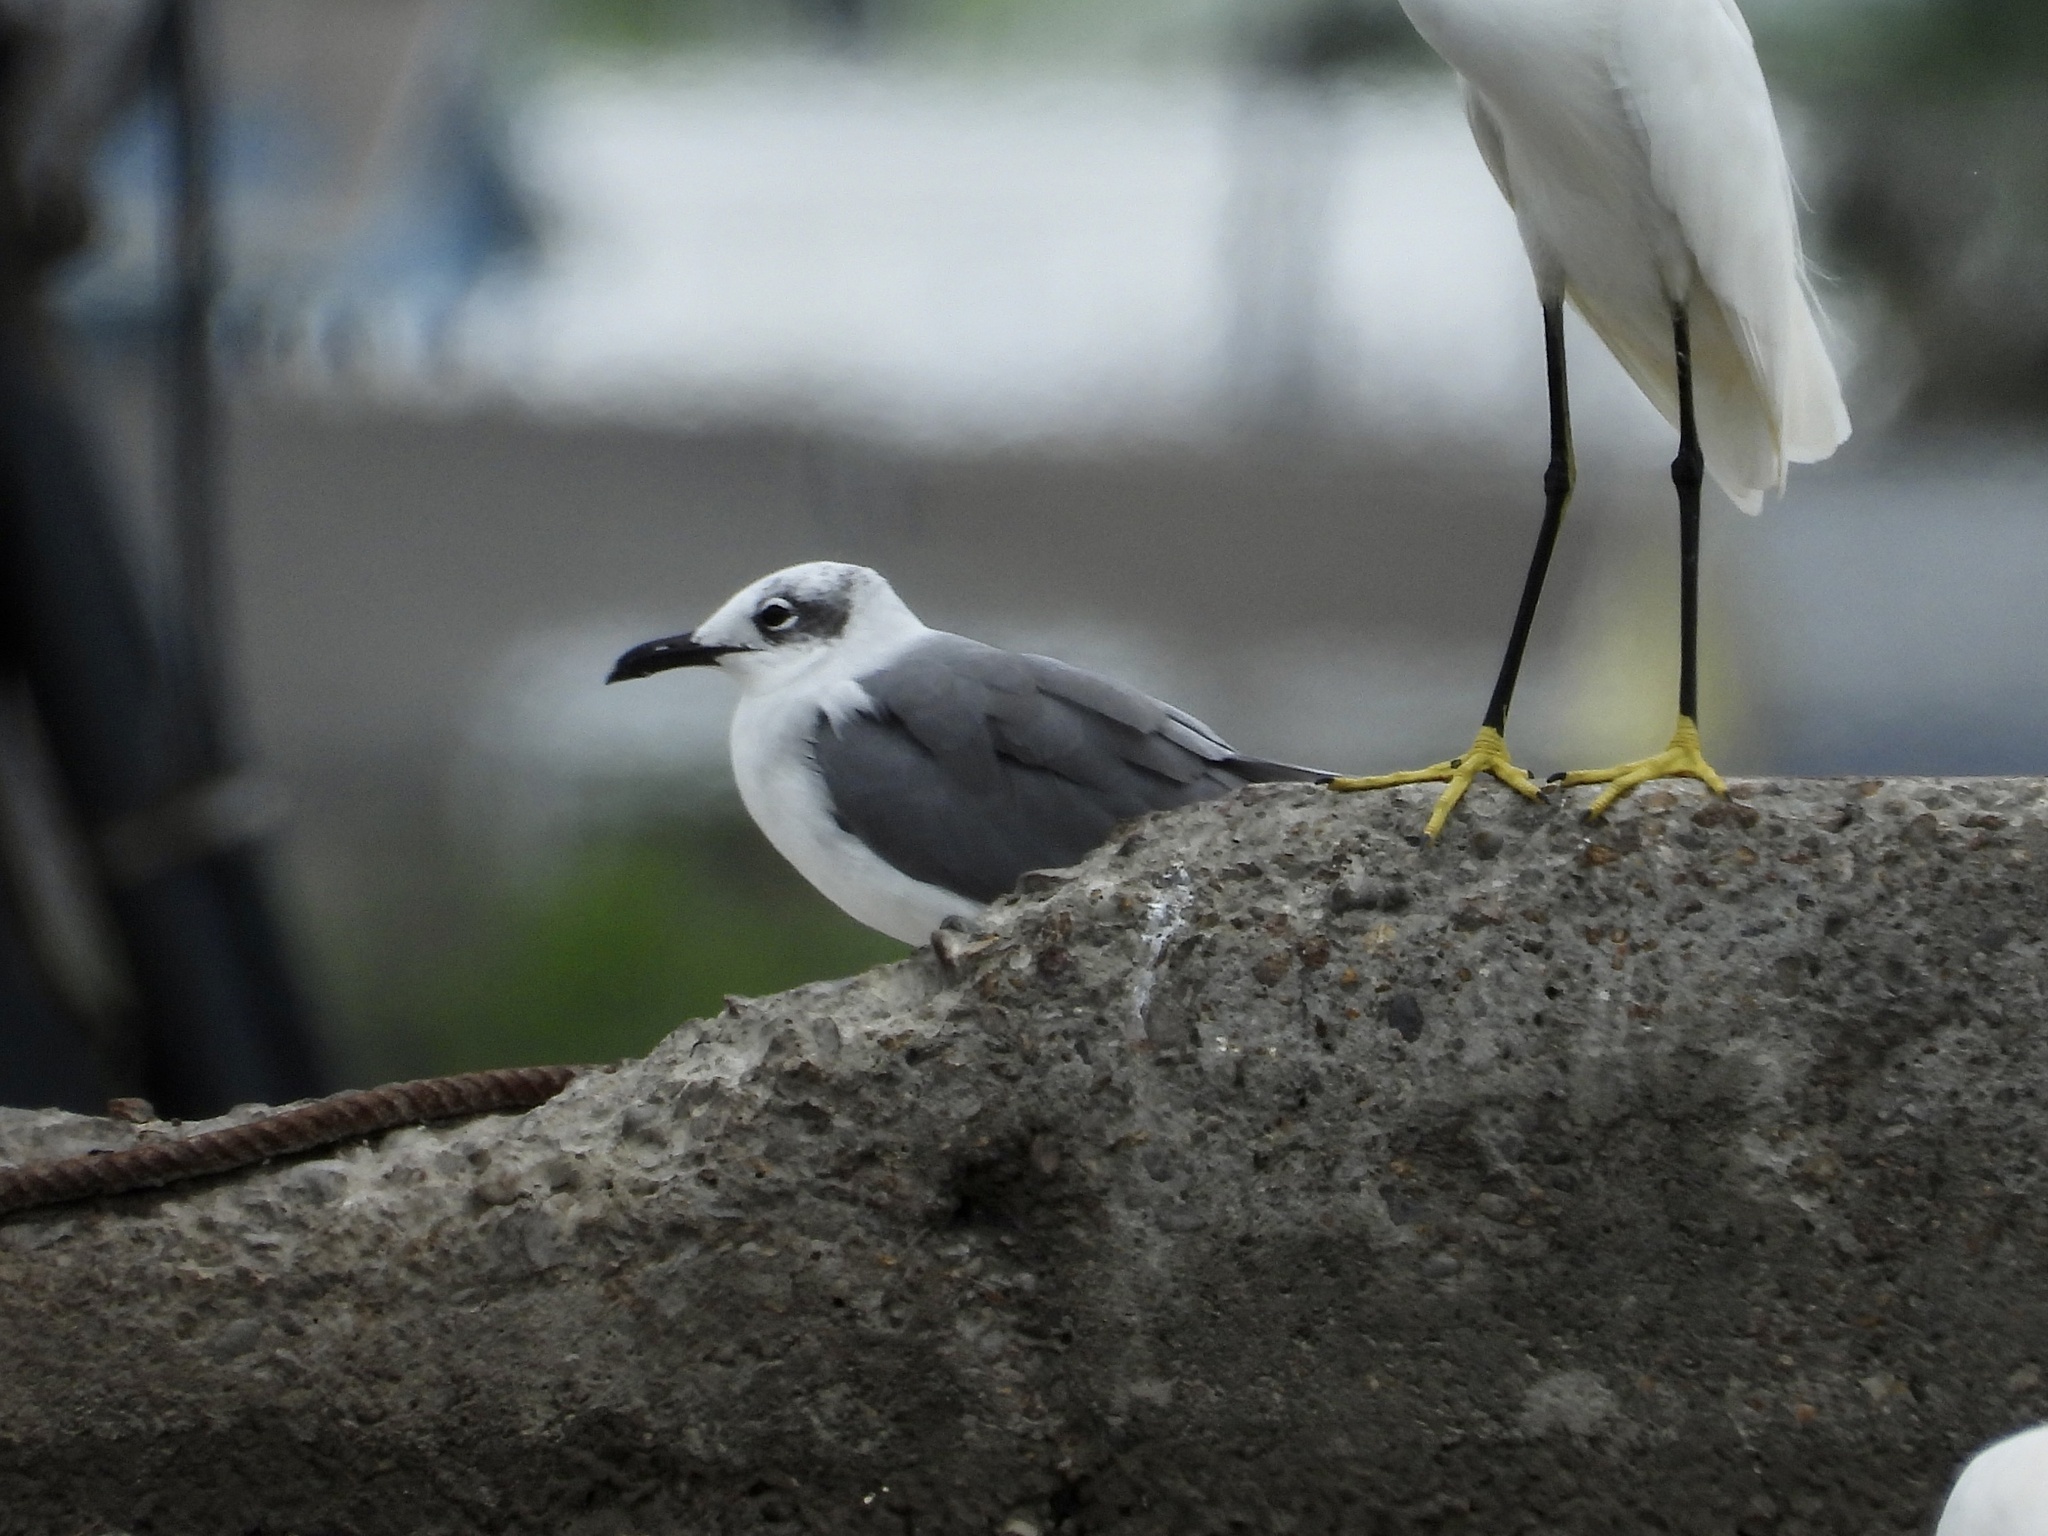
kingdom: Animalia
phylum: Chordata
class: Aves
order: Charadriiformes
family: Laridae
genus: Leucophaeus
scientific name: Leucophaeus atricilla
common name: Laughing gull
